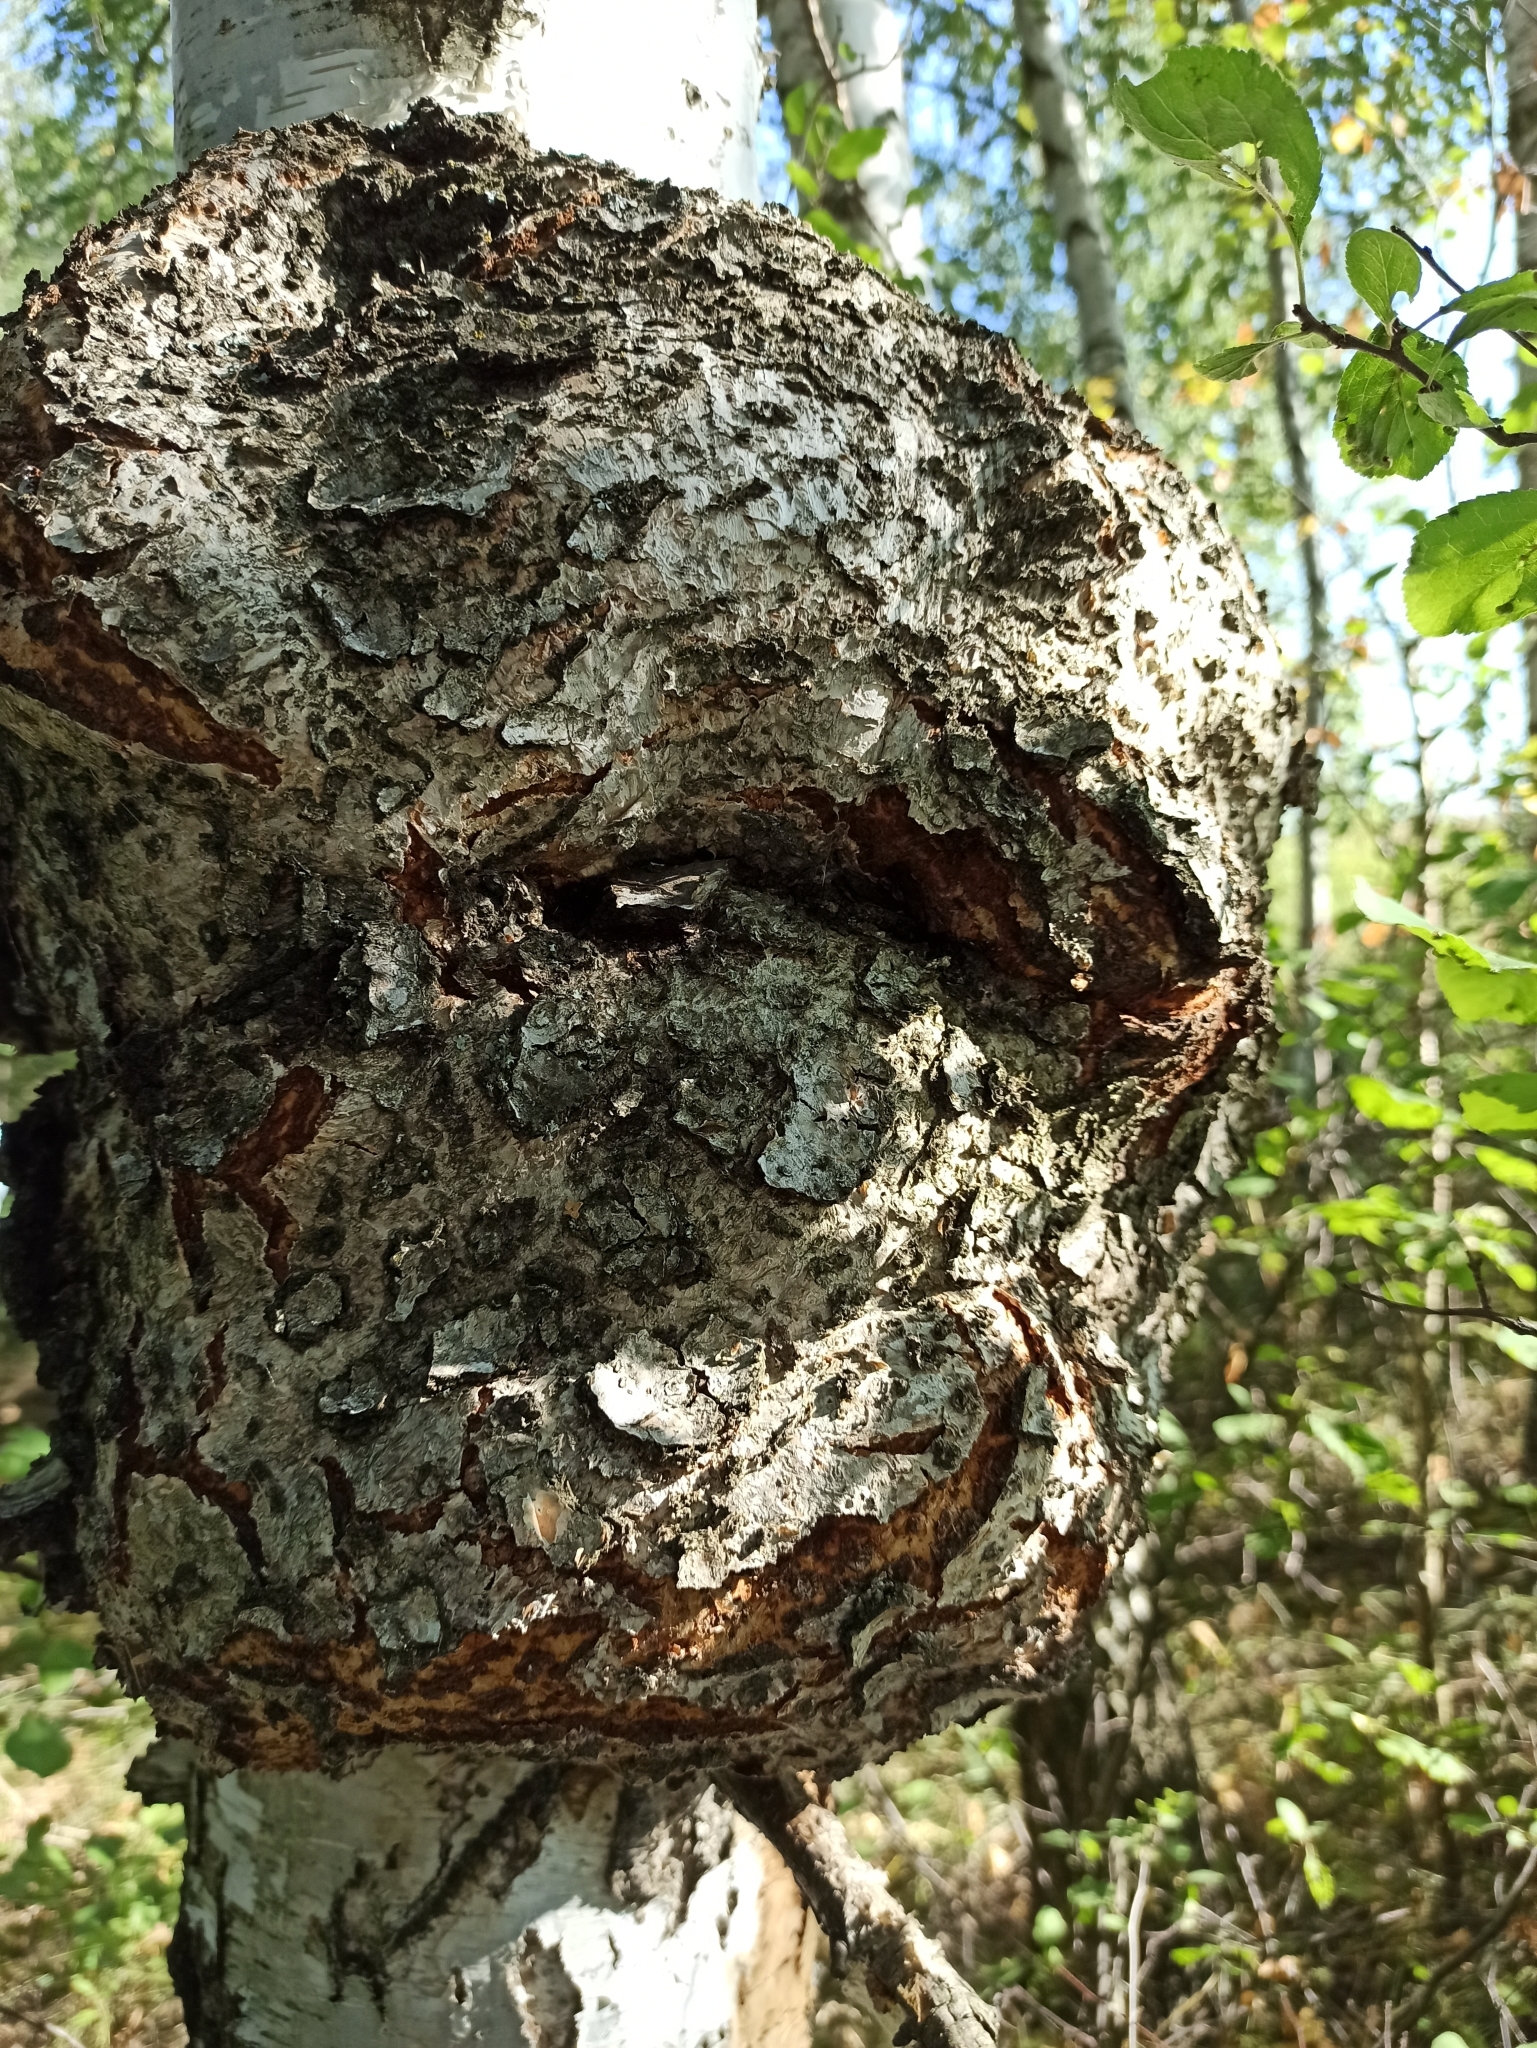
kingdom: Bacteria
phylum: Proteobacteria
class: Alphaproteobacteria
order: Rhizobiales
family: Rhizobiaceae
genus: Rhizobium
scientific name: Rhizobium Agrobacterium radiobacter
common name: Bacterial crown gall
